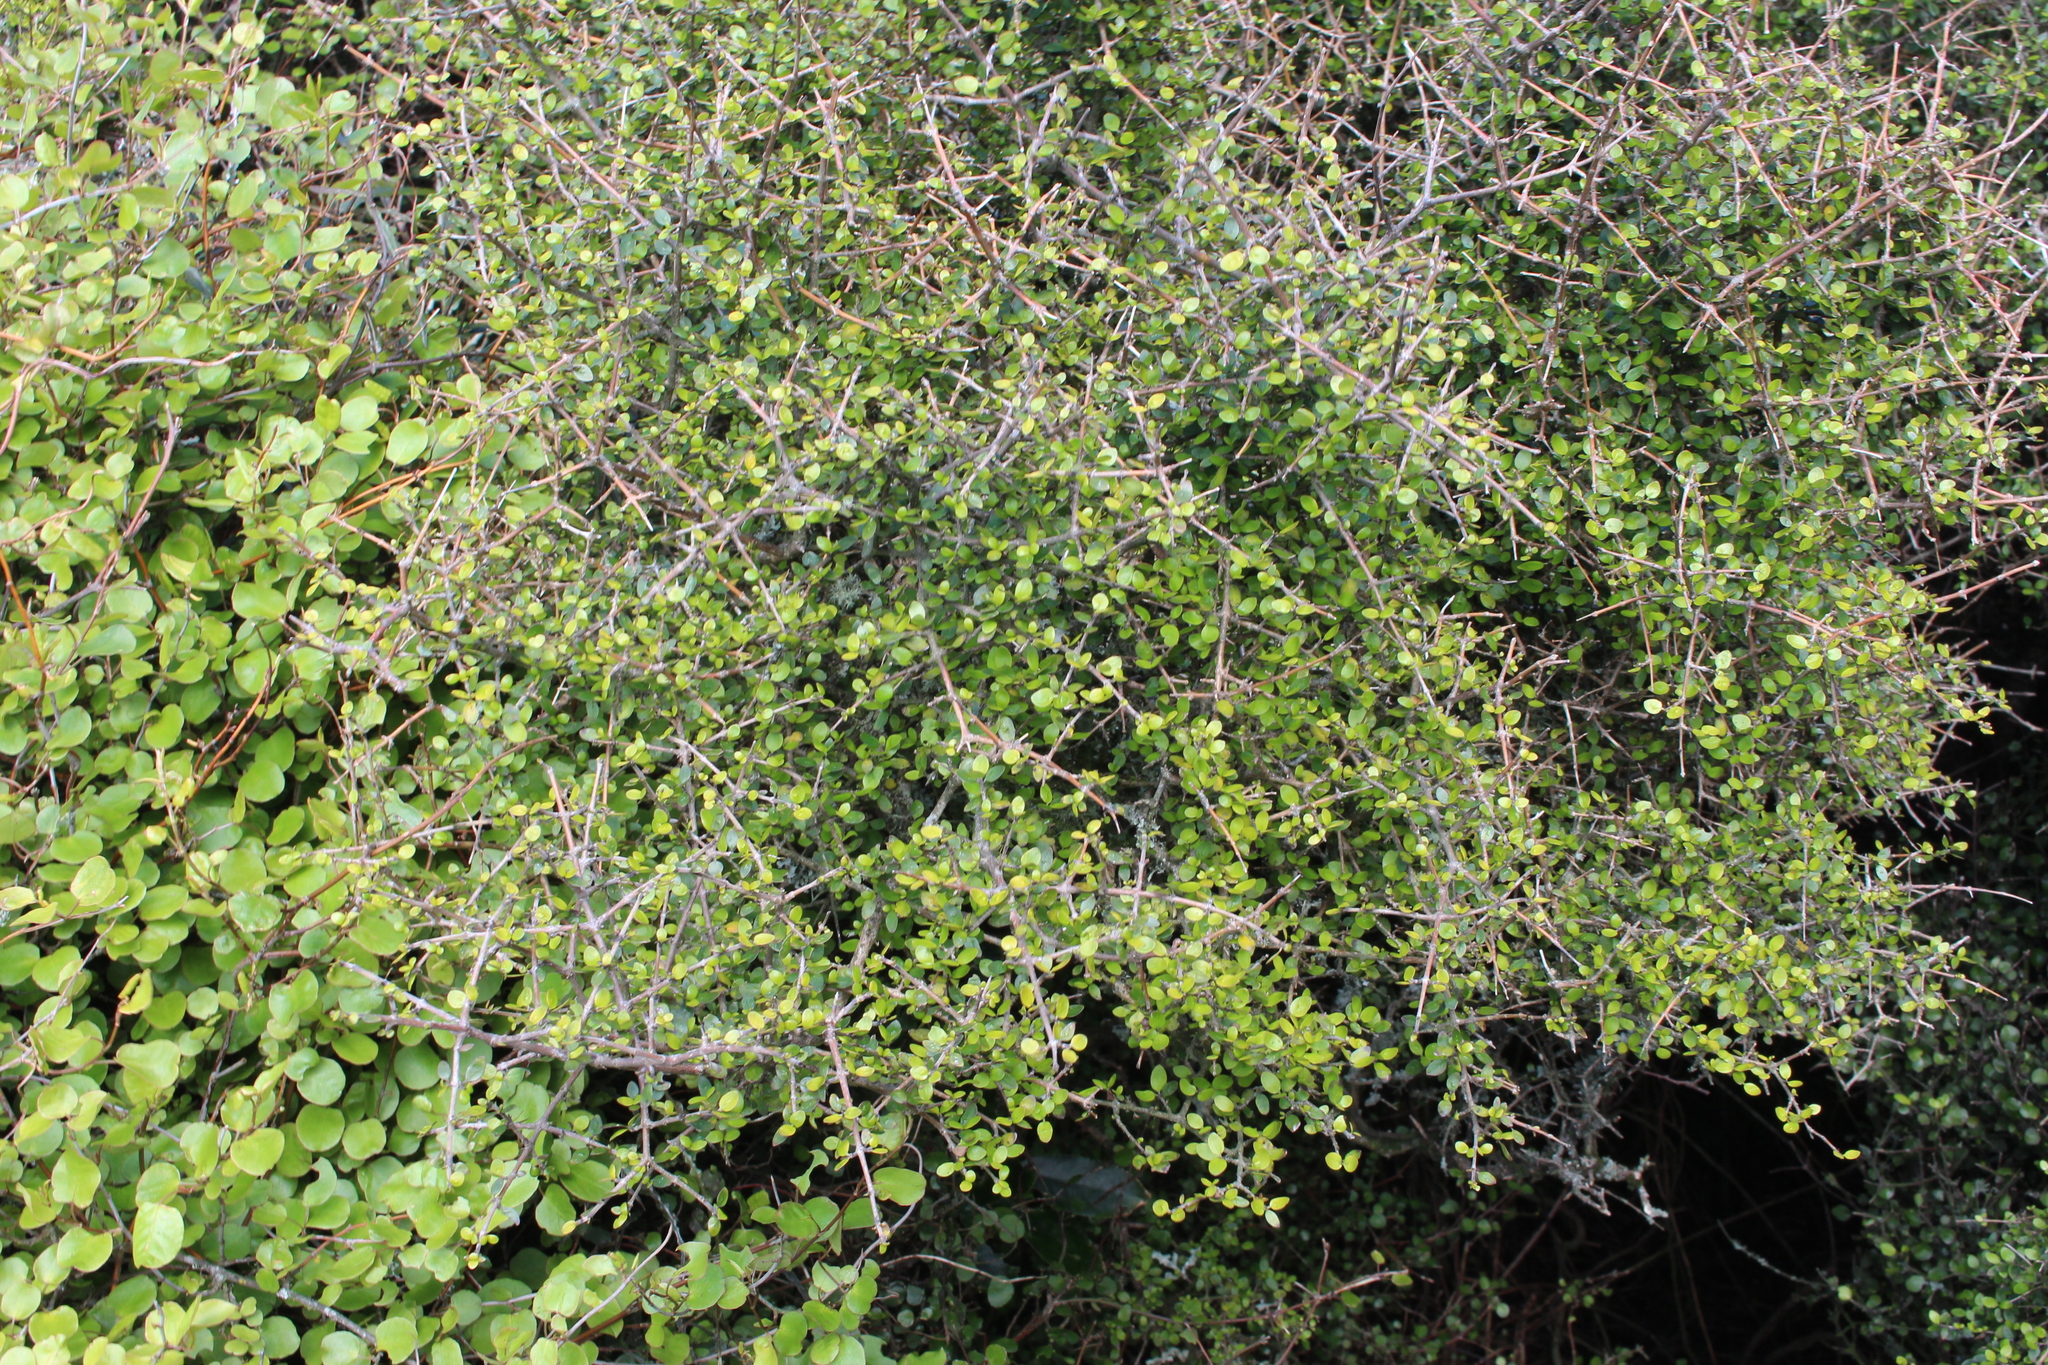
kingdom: Plantae
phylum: Tracheophyta
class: Magnoliopsida
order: Gentianales
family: Rubiaceae
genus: Coprosma
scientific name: Coprosma wallii
